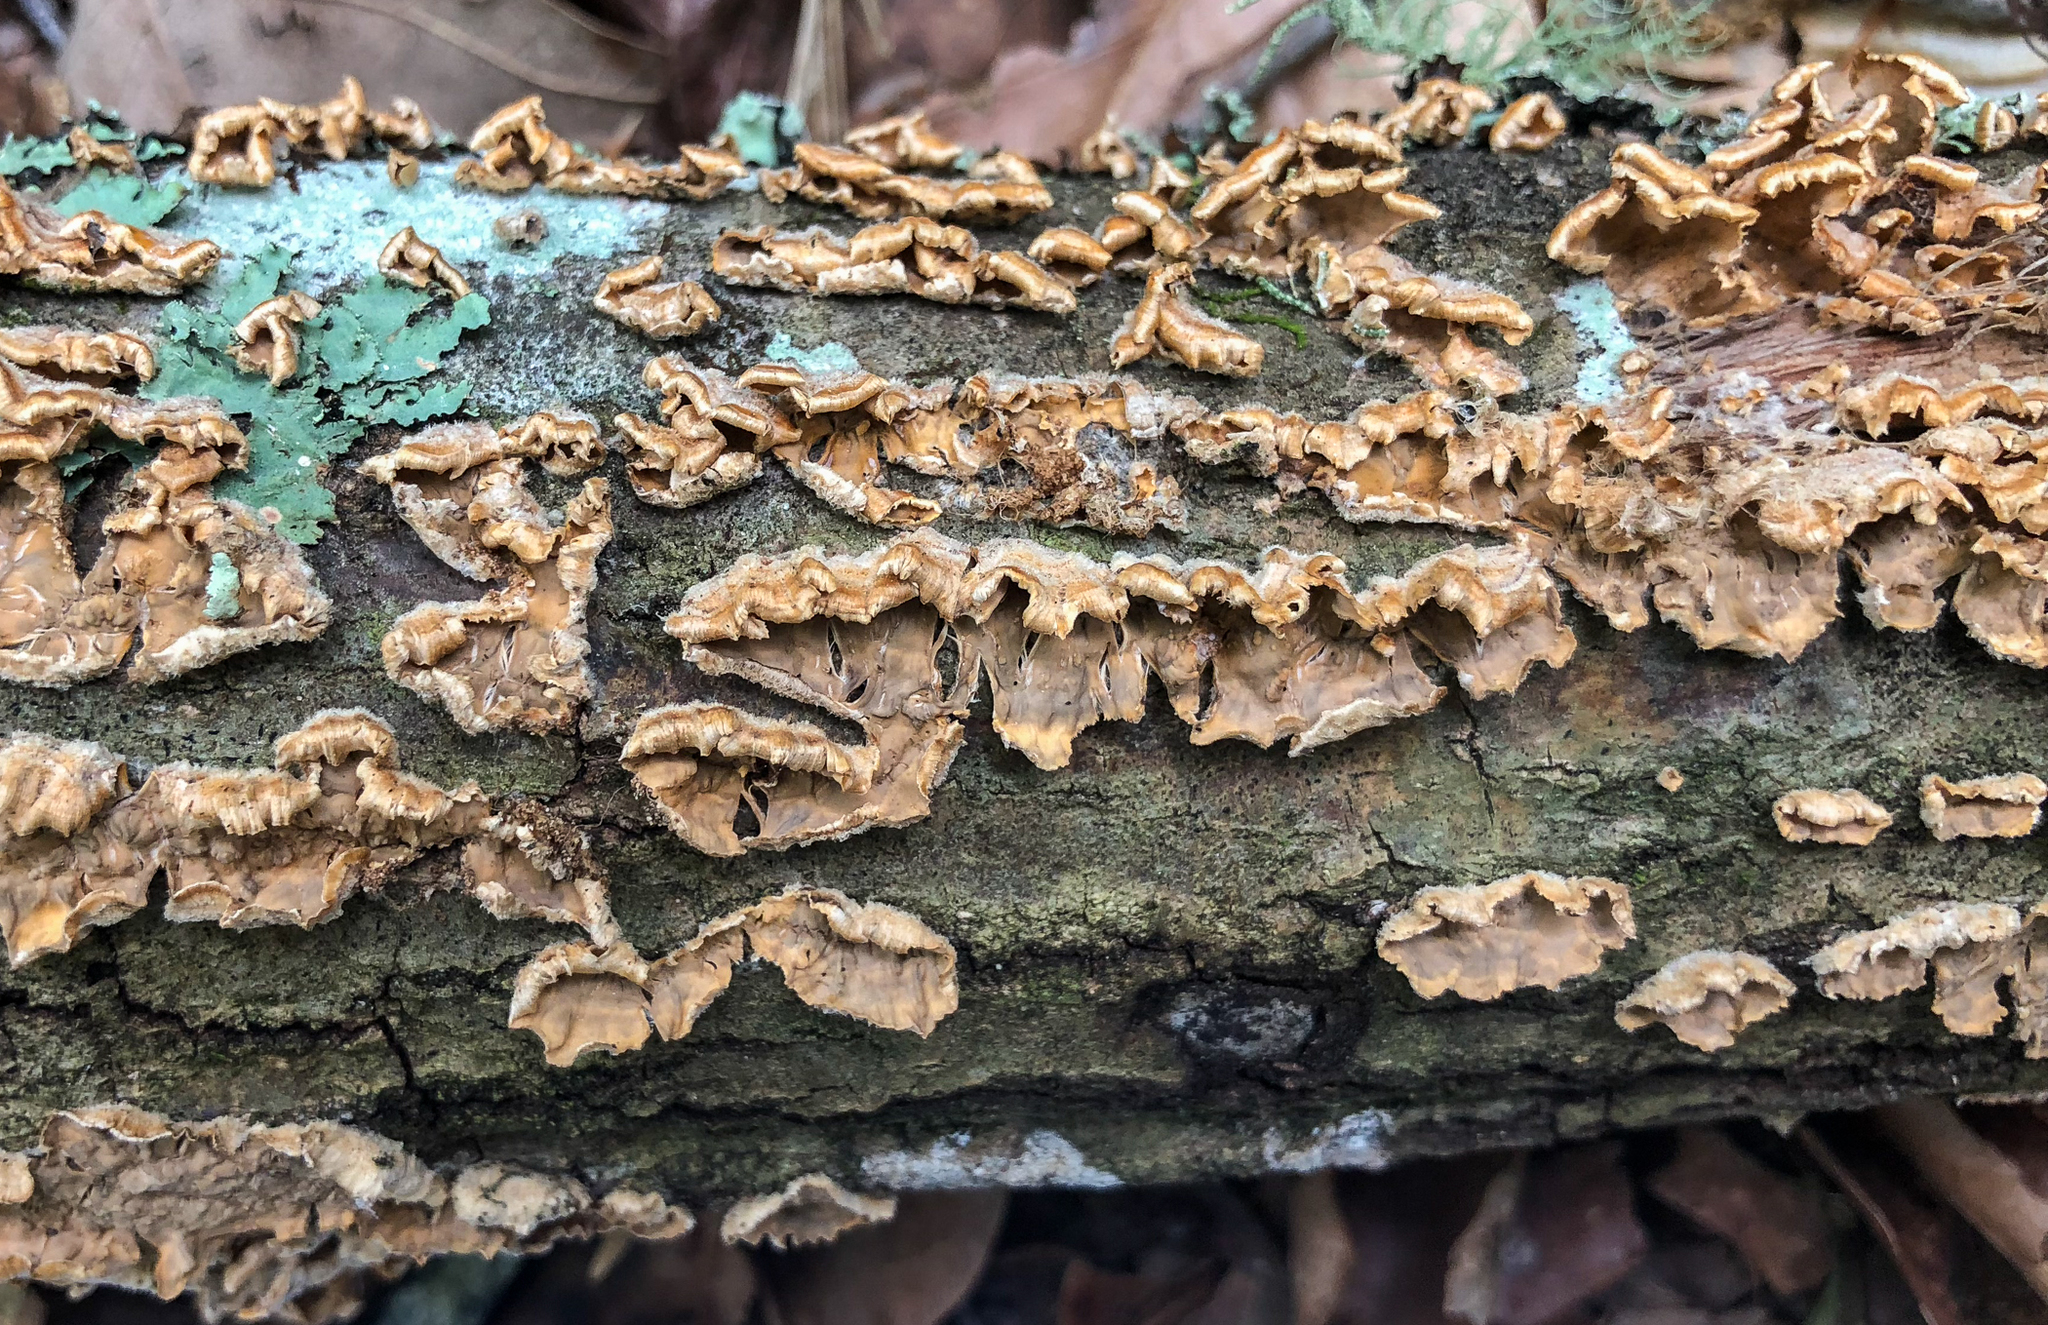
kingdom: Fungi
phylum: Basidiomycota
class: Agaricomycetes
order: Russulales
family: Stereaceae
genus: Stereum
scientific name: Stereum complicatum
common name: Crowded parchment
